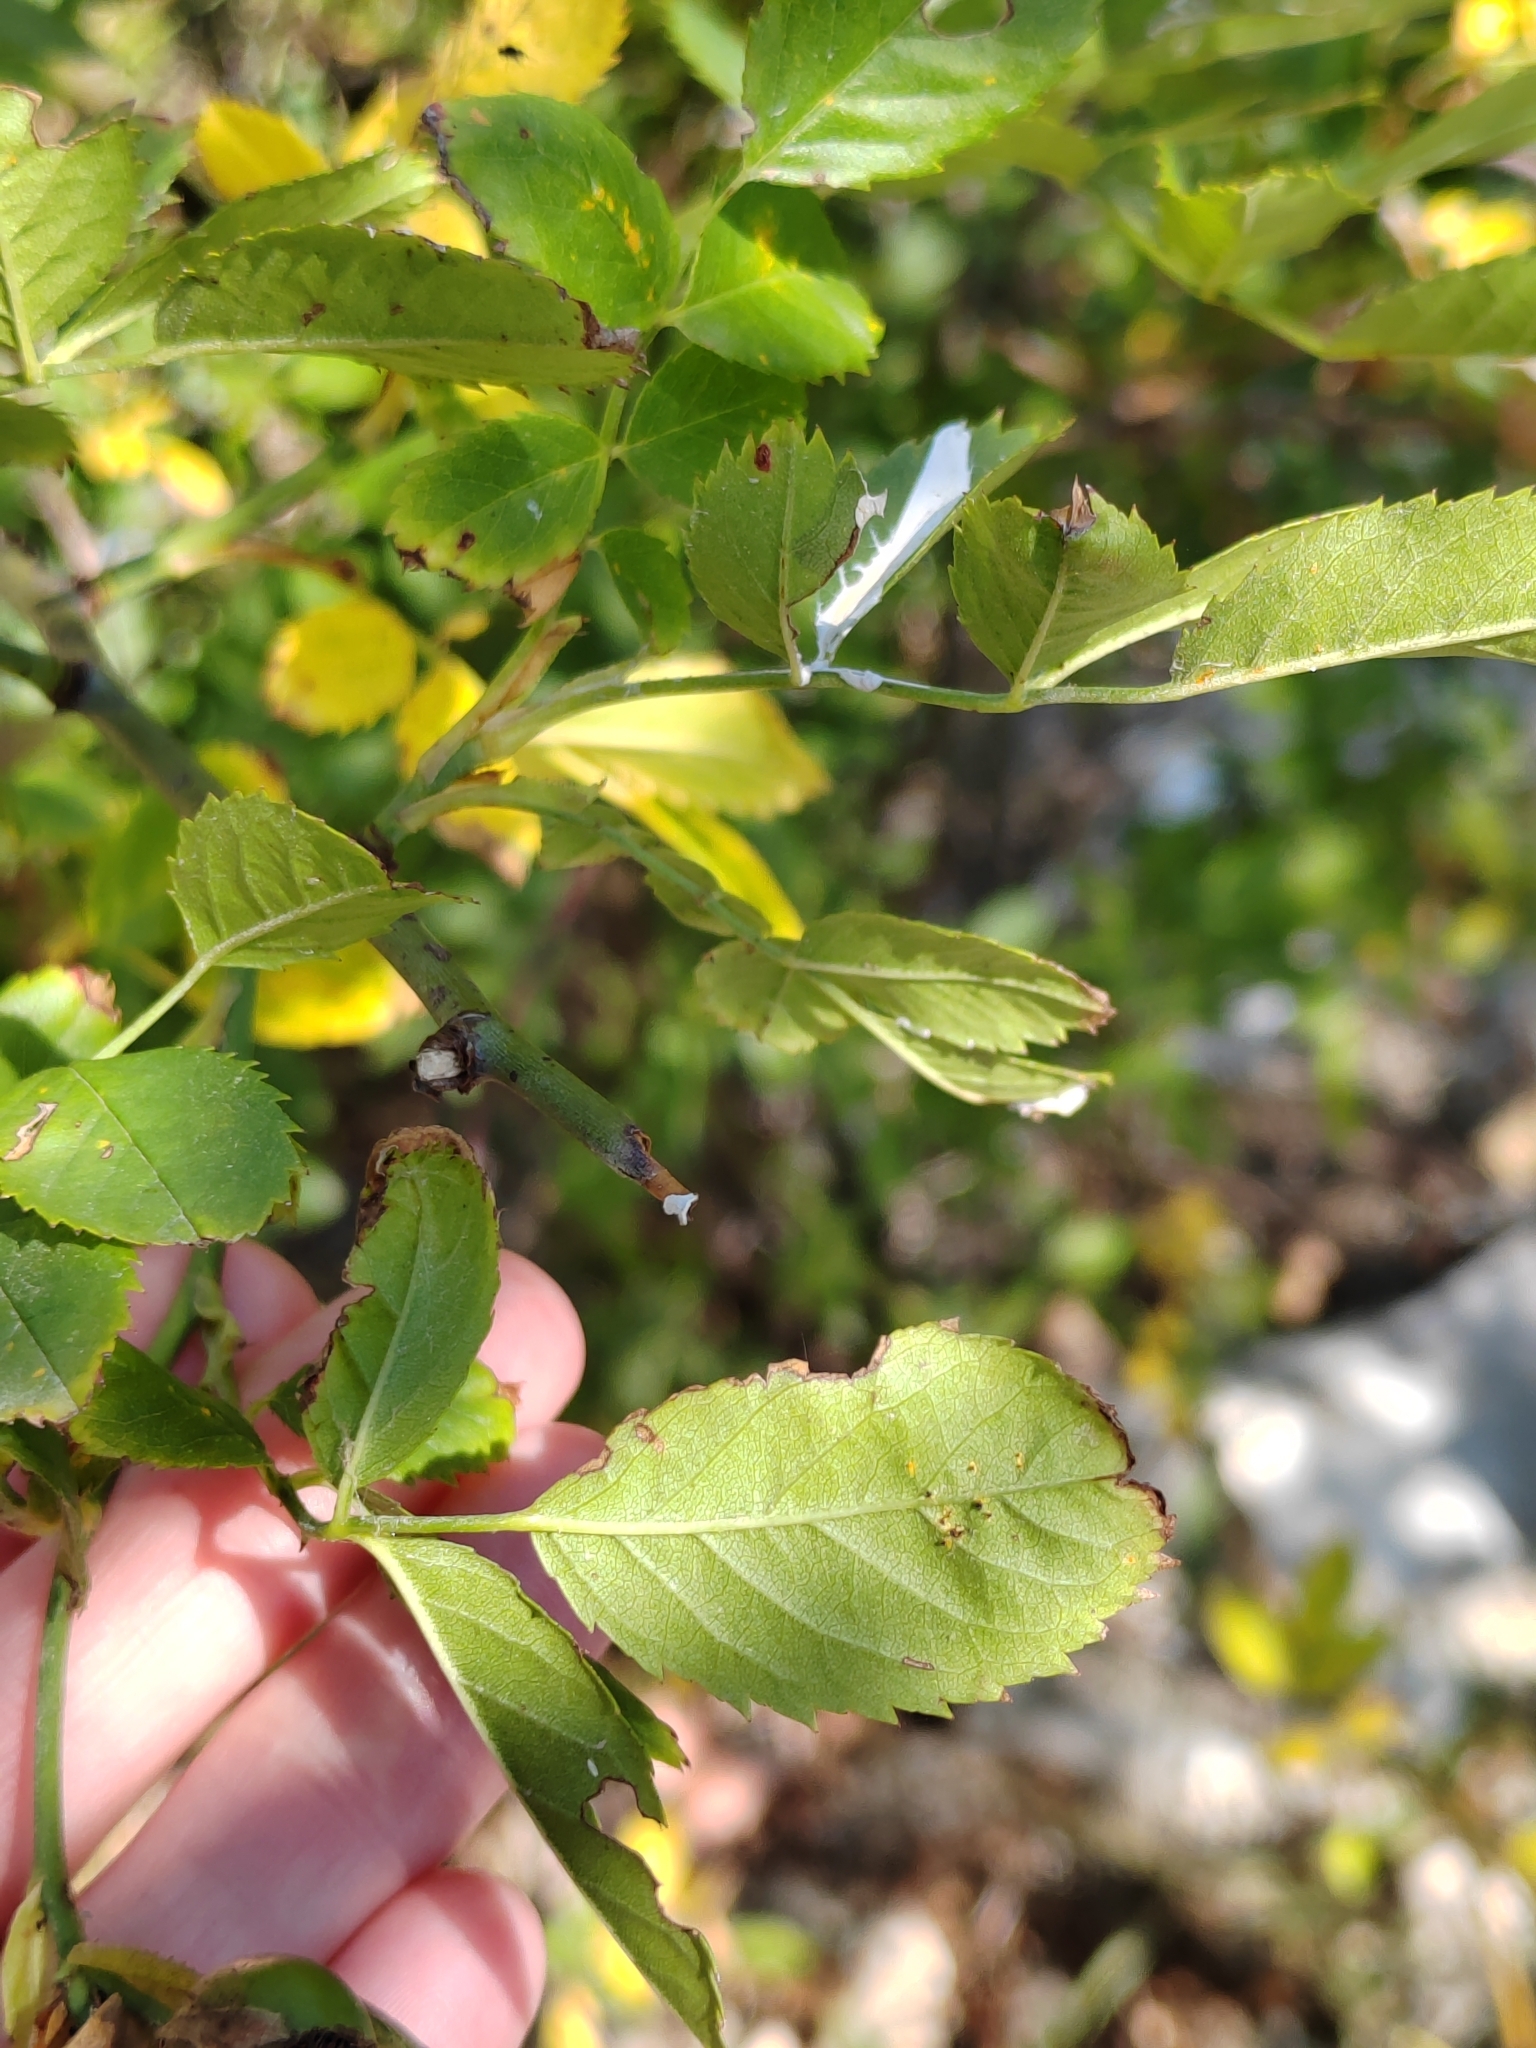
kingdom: Plantae
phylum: Tracheophyta
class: Magnoliopsida
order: Rosales
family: Rosaceae
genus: Malus
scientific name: Malus domestica
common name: Apple
